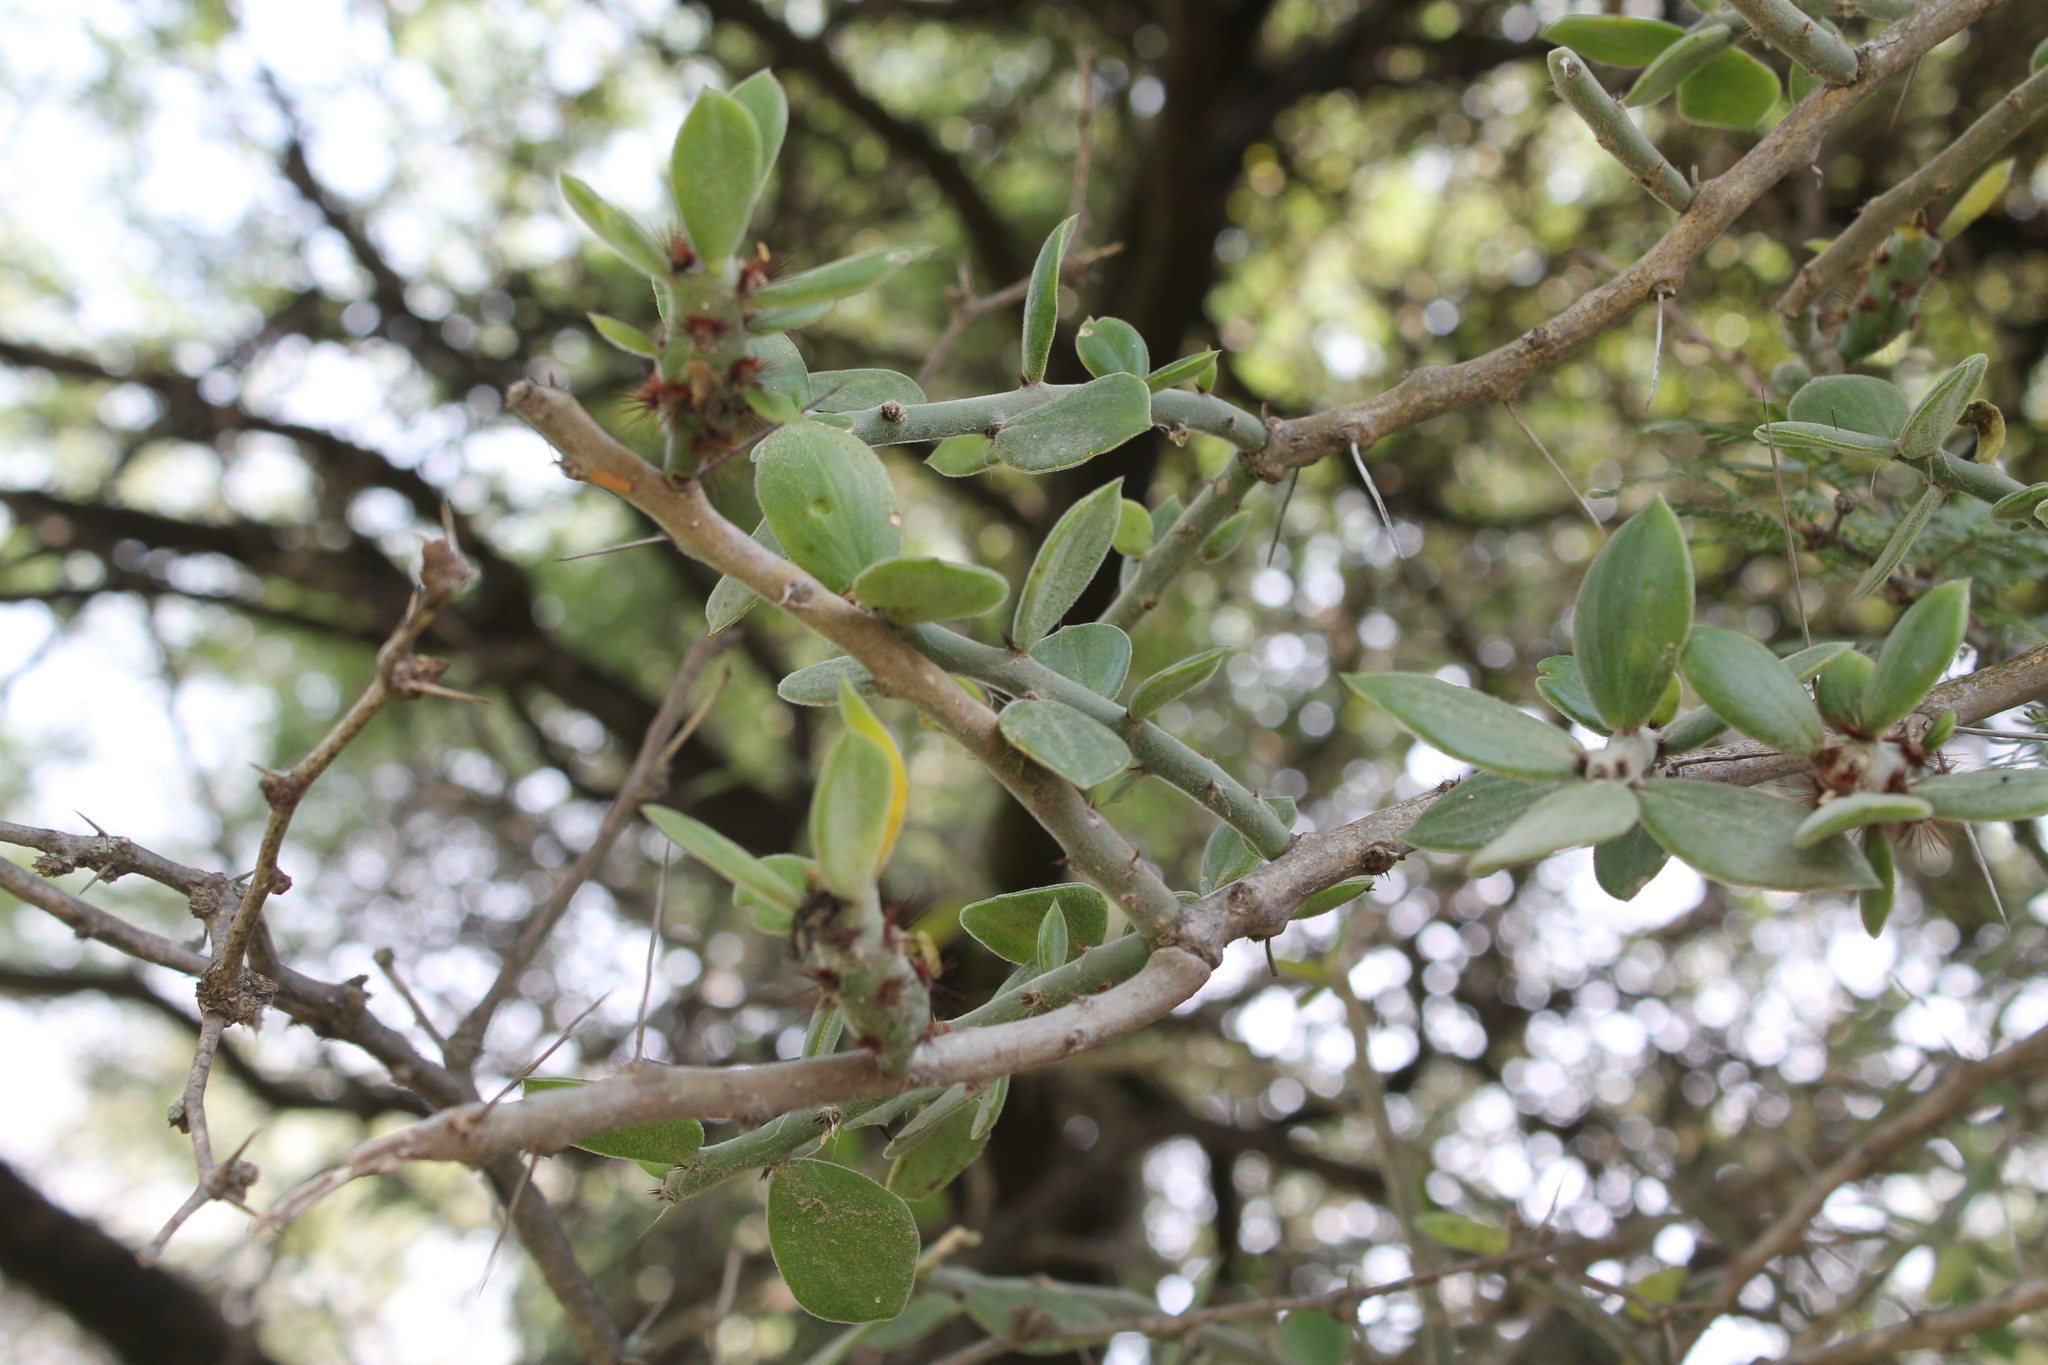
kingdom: Plantae
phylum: Tracheophyta
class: Magnoliopsida
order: Caryophyllales
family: Cactaceae
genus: Pereskiopsis
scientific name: Pereskiopsis diguetii
